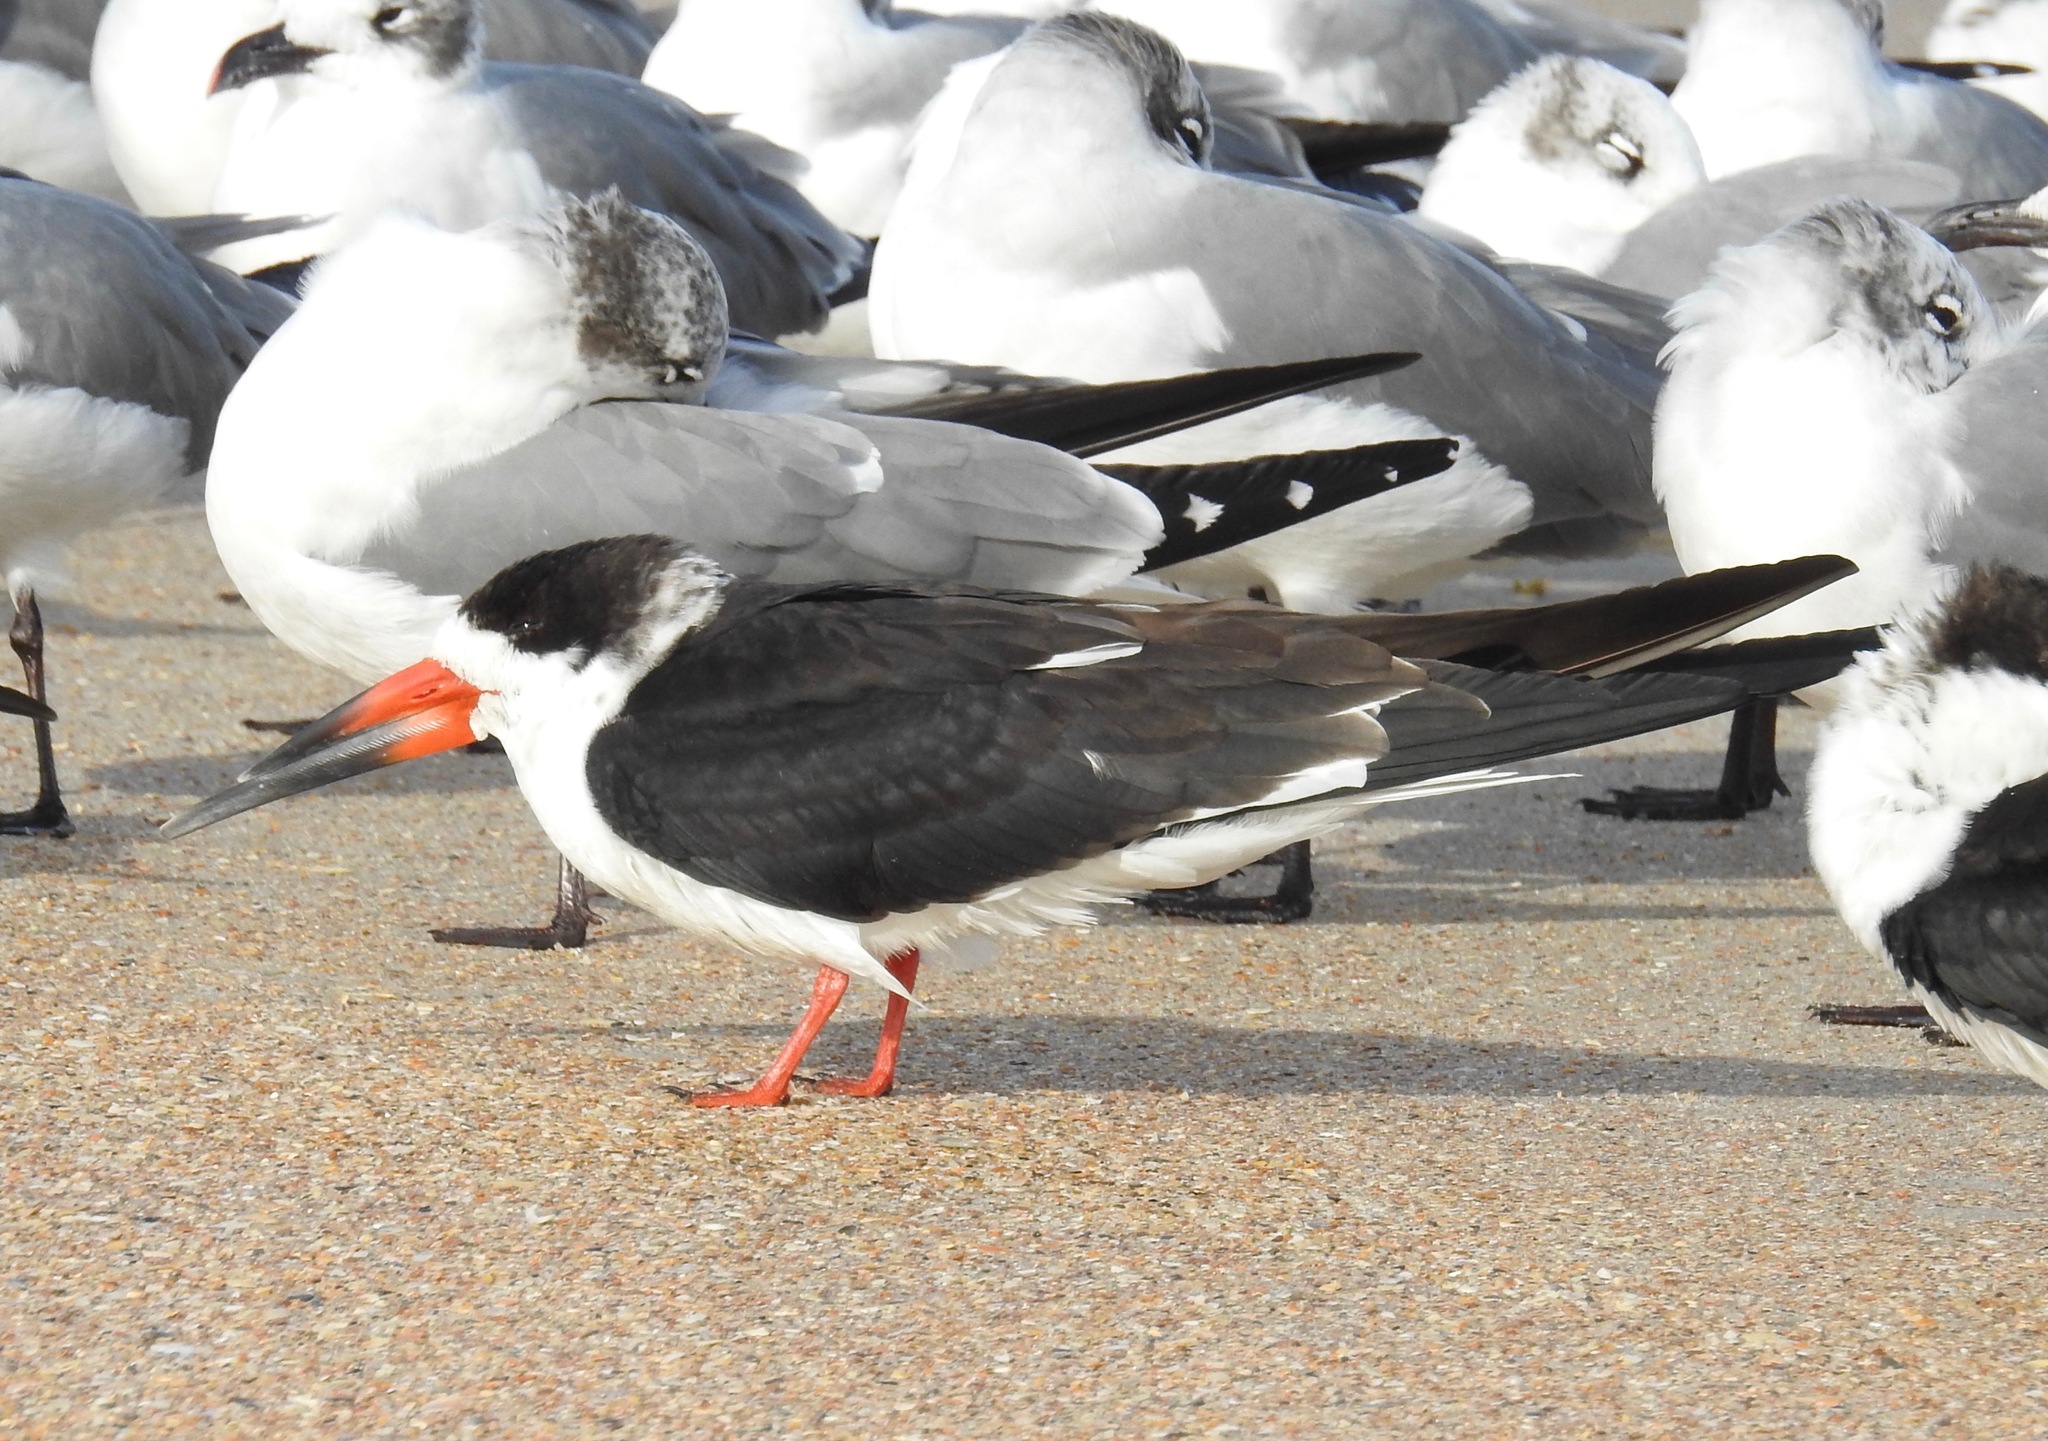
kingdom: Animalia
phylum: Chordata
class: Aves
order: Charadriiformes
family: Laridae
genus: Rynchops
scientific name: Rynchops niger
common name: Black skimmer
